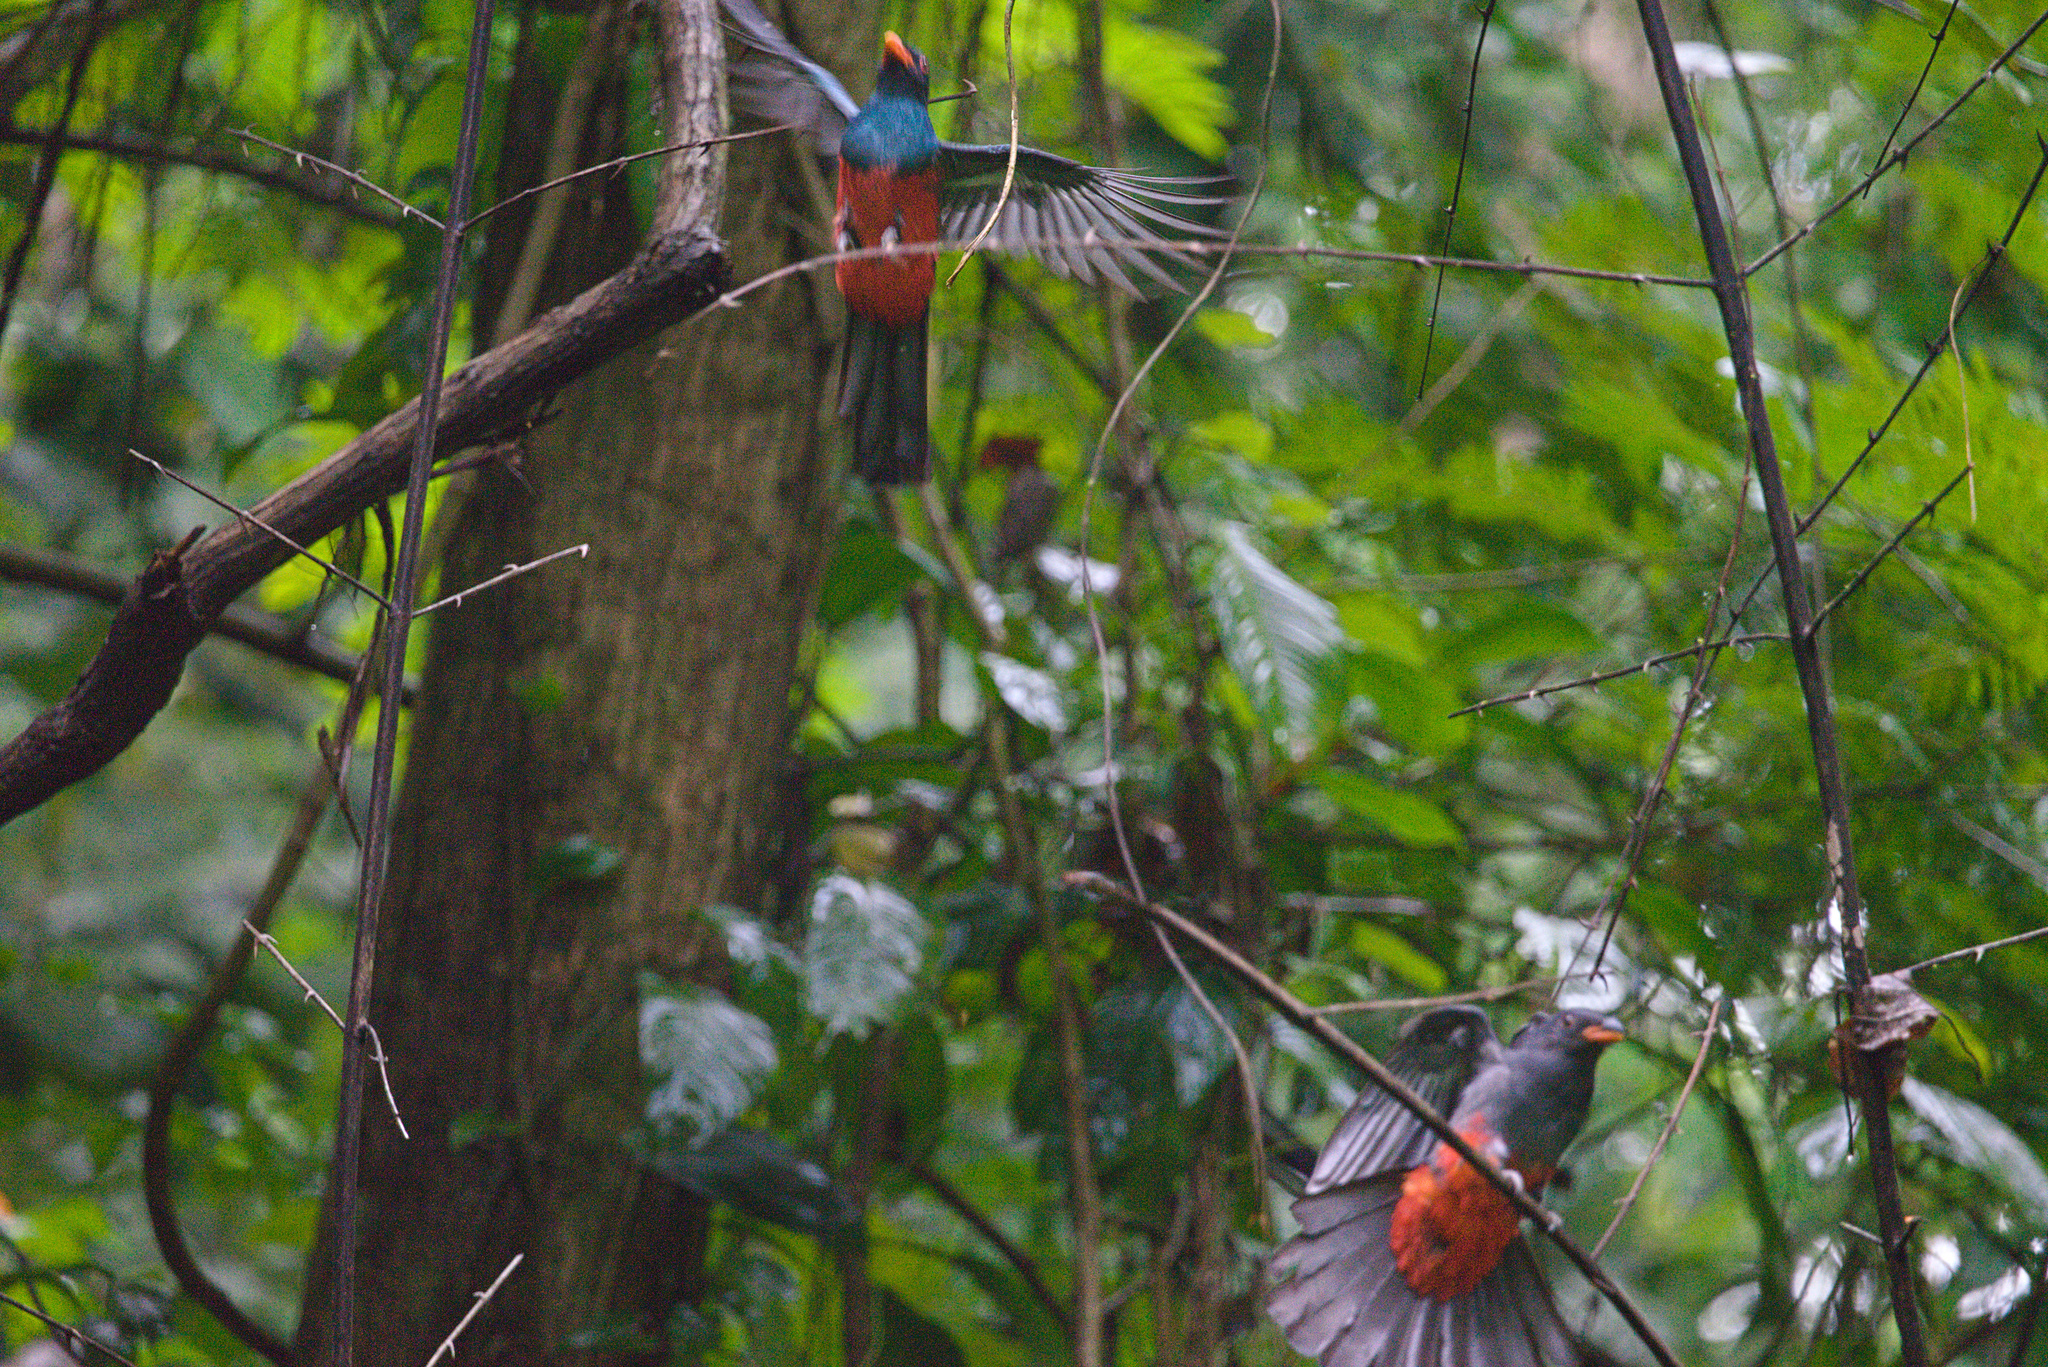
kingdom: Animalia
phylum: Chordata
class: Aves
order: Trogoniformes
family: Trogonidae
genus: Trogon
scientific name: Trogon massena
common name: Slaty-tailed trogon
